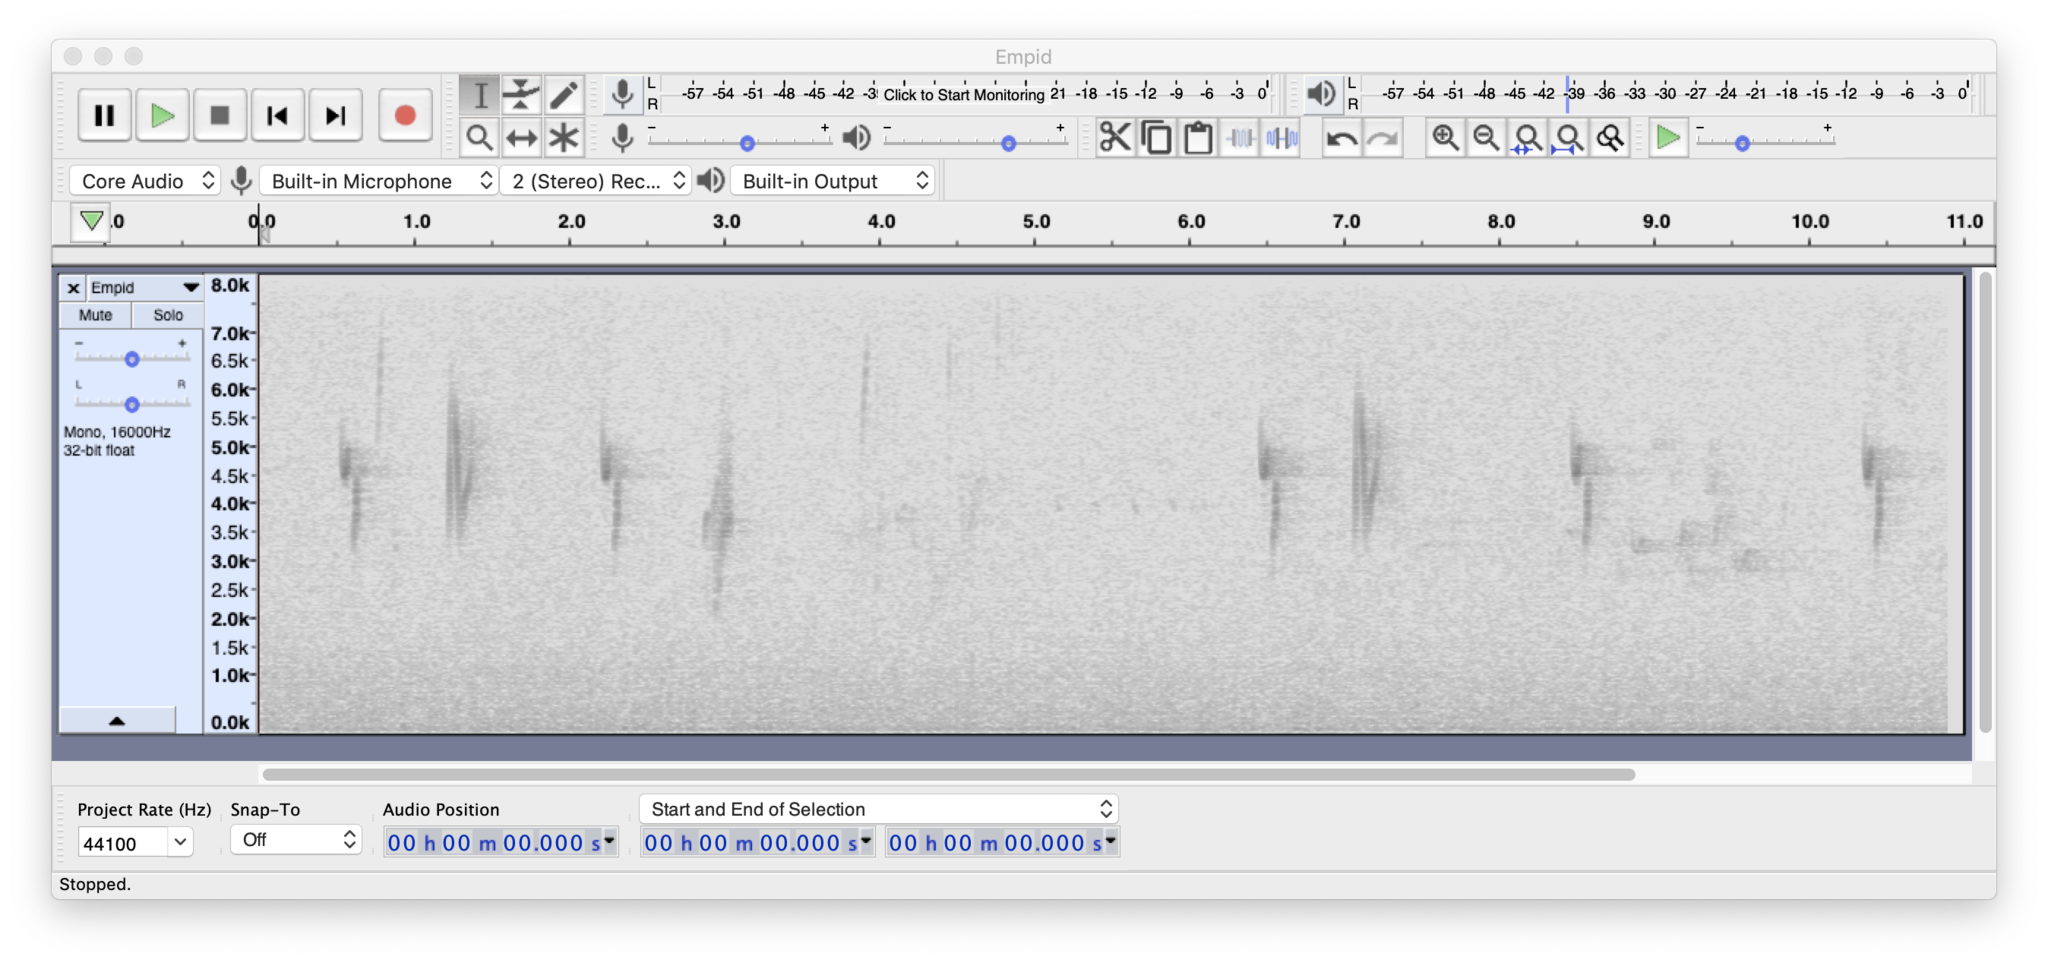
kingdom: Animalia
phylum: Chordata
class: Aves
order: Passeriformes
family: Tyrannidae
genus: Empidonax
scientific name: Empidonax oberholseri
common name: Dusky flycatcher
